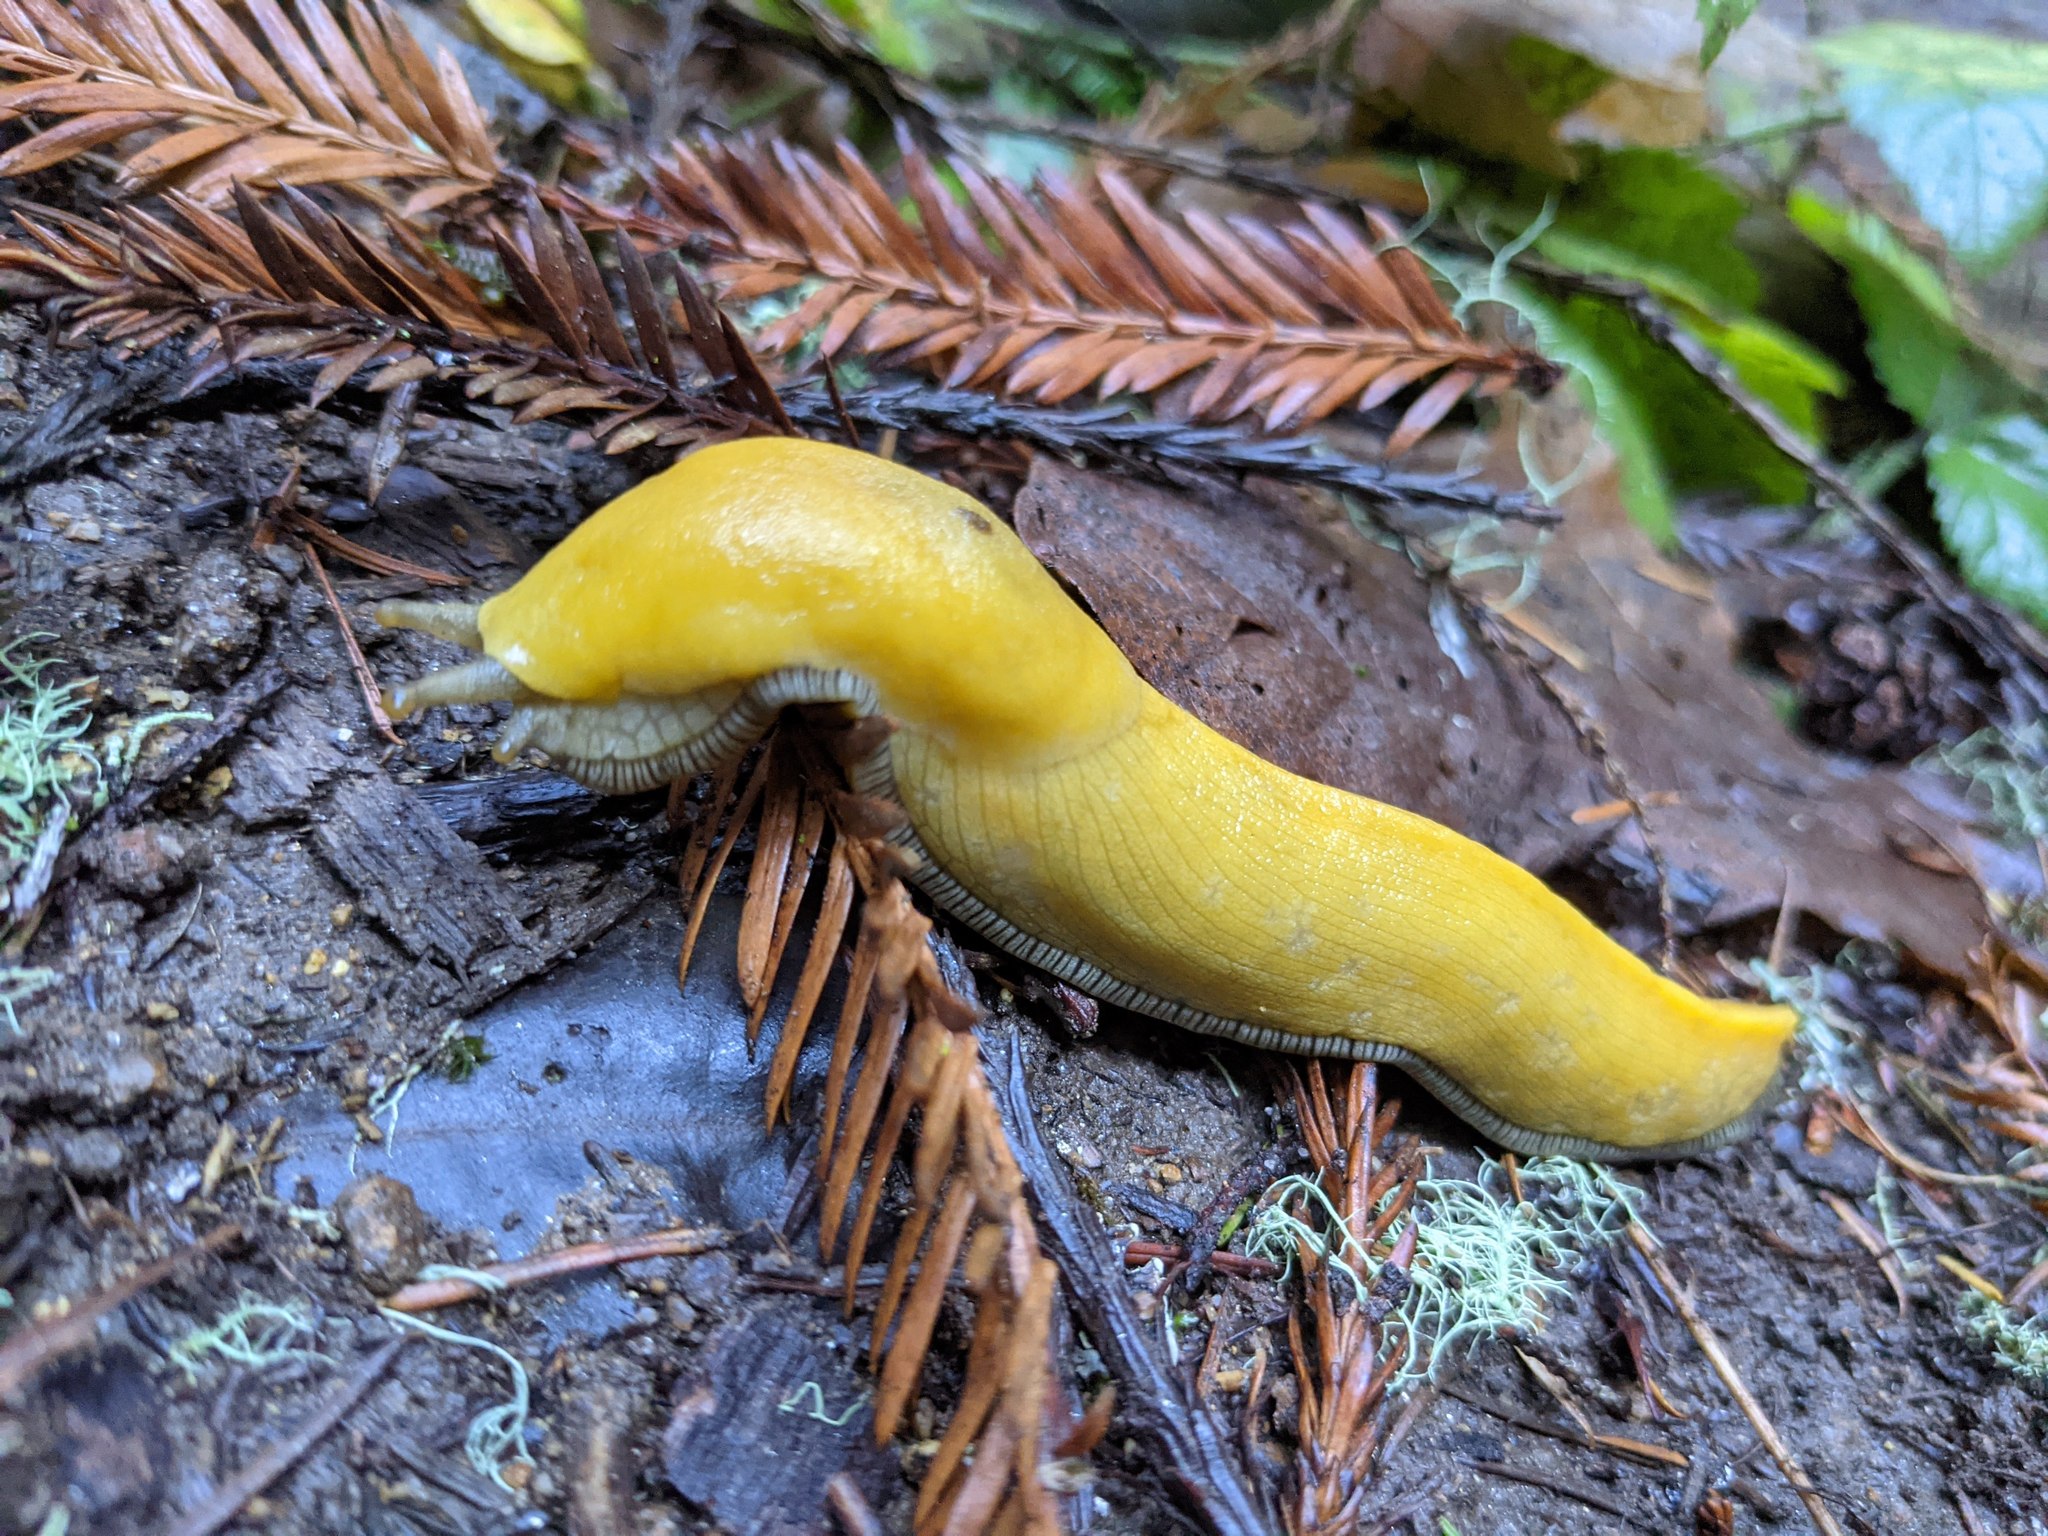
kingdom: Animalia
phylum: Mollusca
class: Gastropoda
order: Stylommatophora
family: Ariolimacidae
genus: Ariolimax
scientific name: Ariolimax dolichophallus
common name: Slender banana slug
